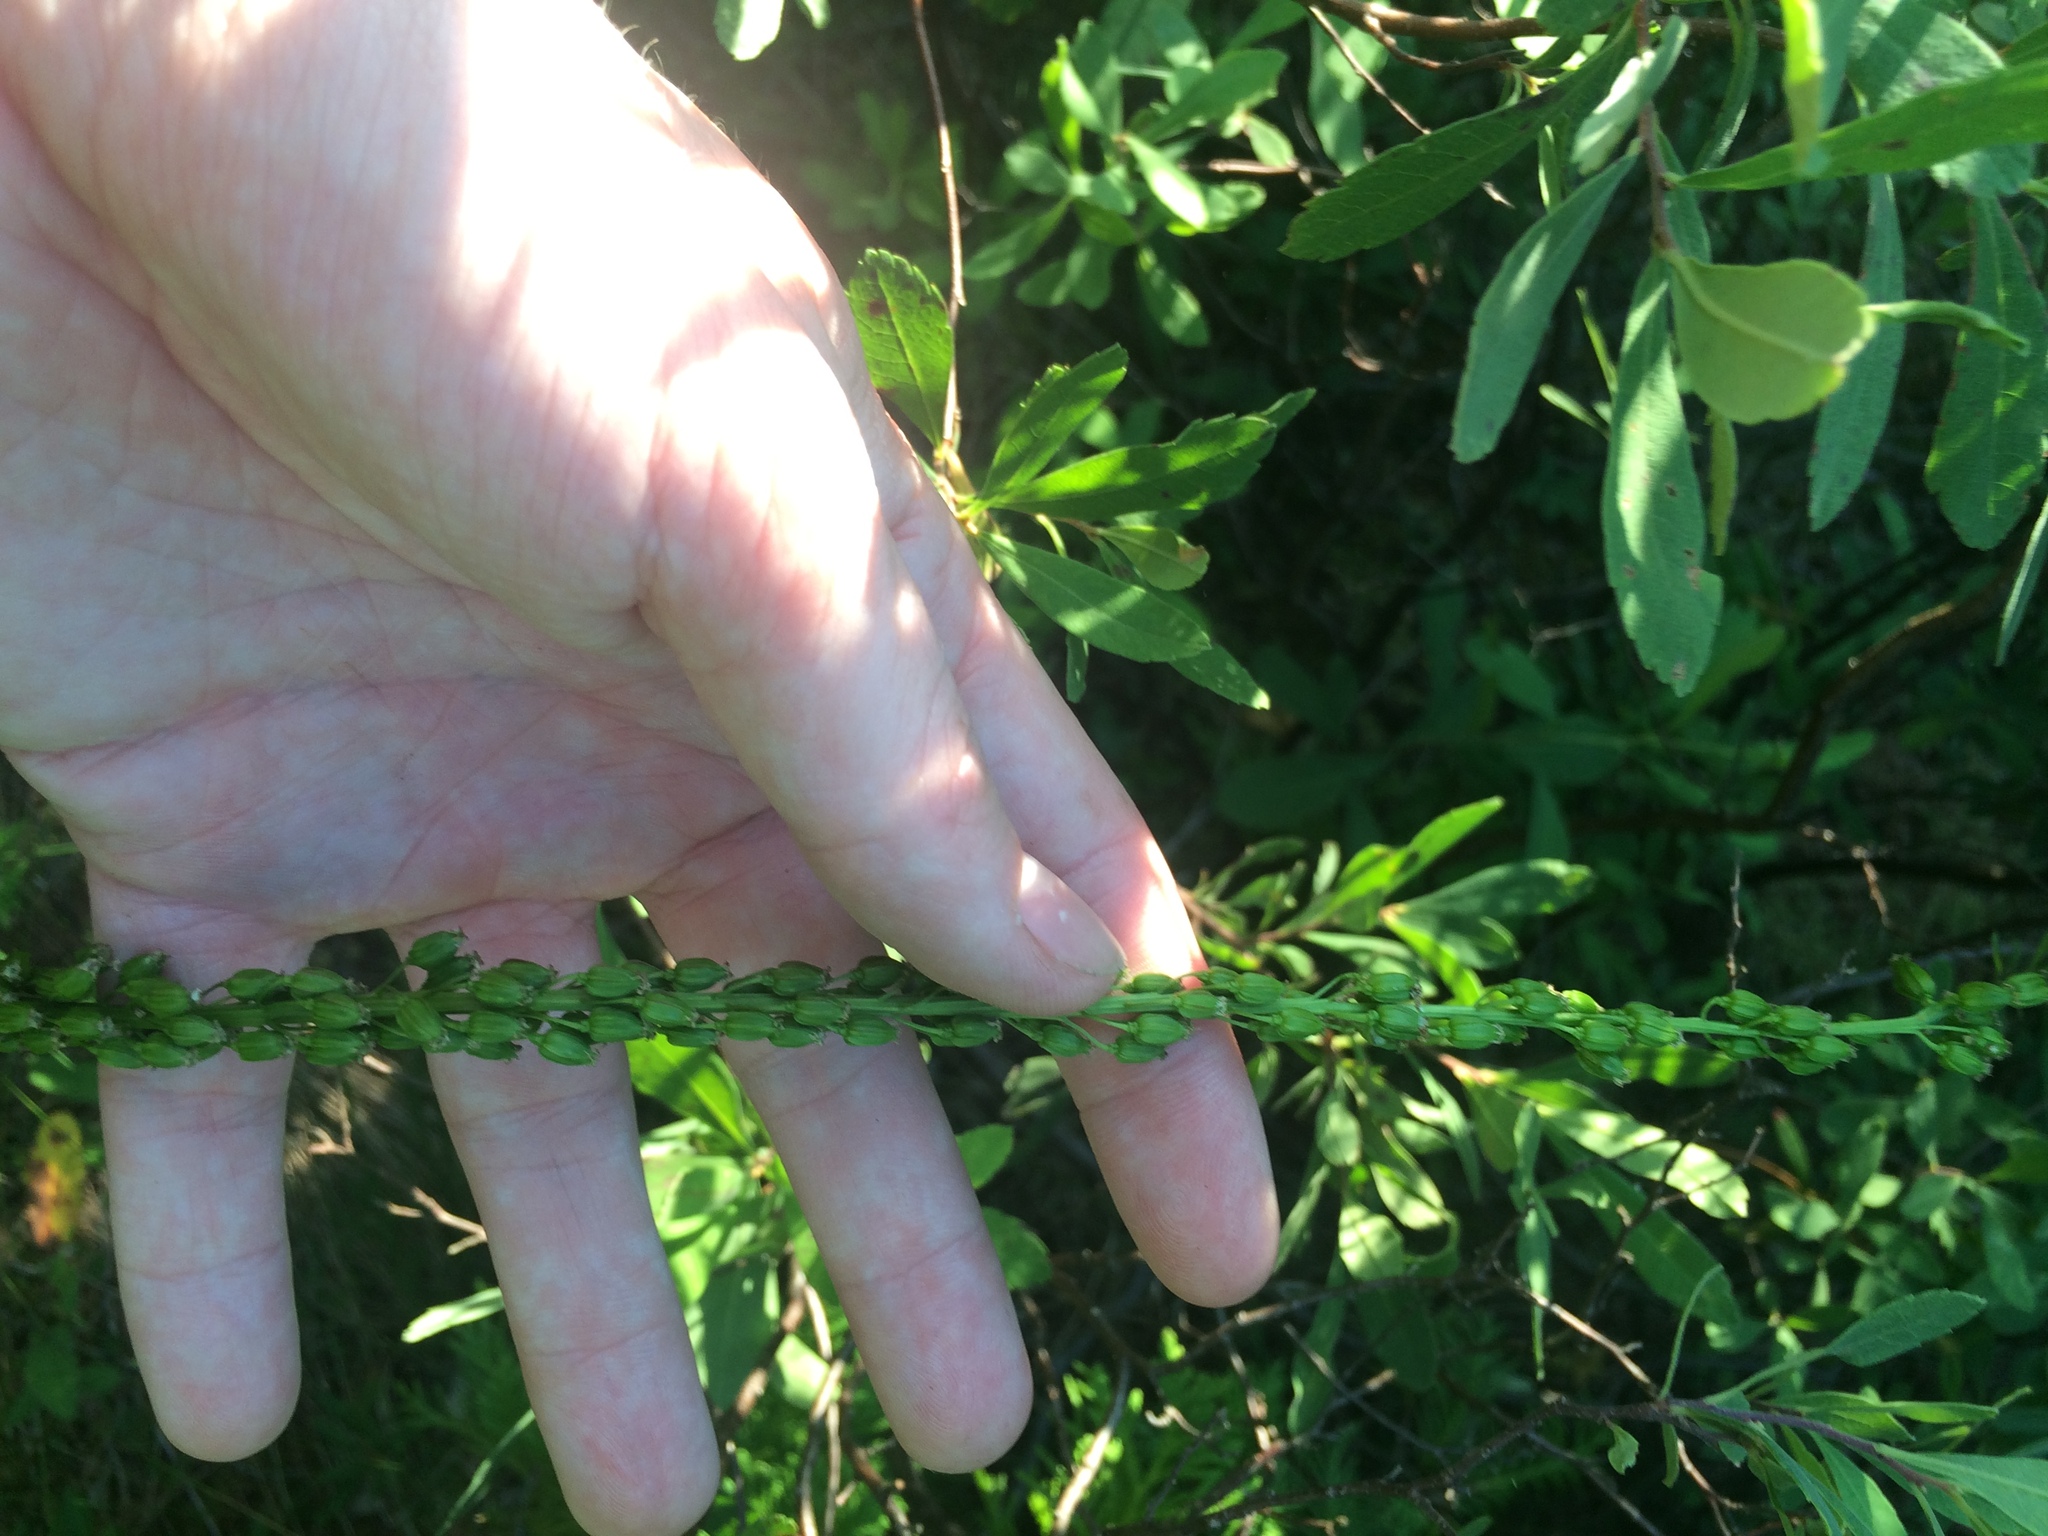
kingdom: Plantae
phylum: Tracheophyta
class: Liliopsida
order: Alismatales
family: Juncaginaceae
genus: Triglochin
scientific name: Triglochin maritima
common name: Sea arrowgrass
